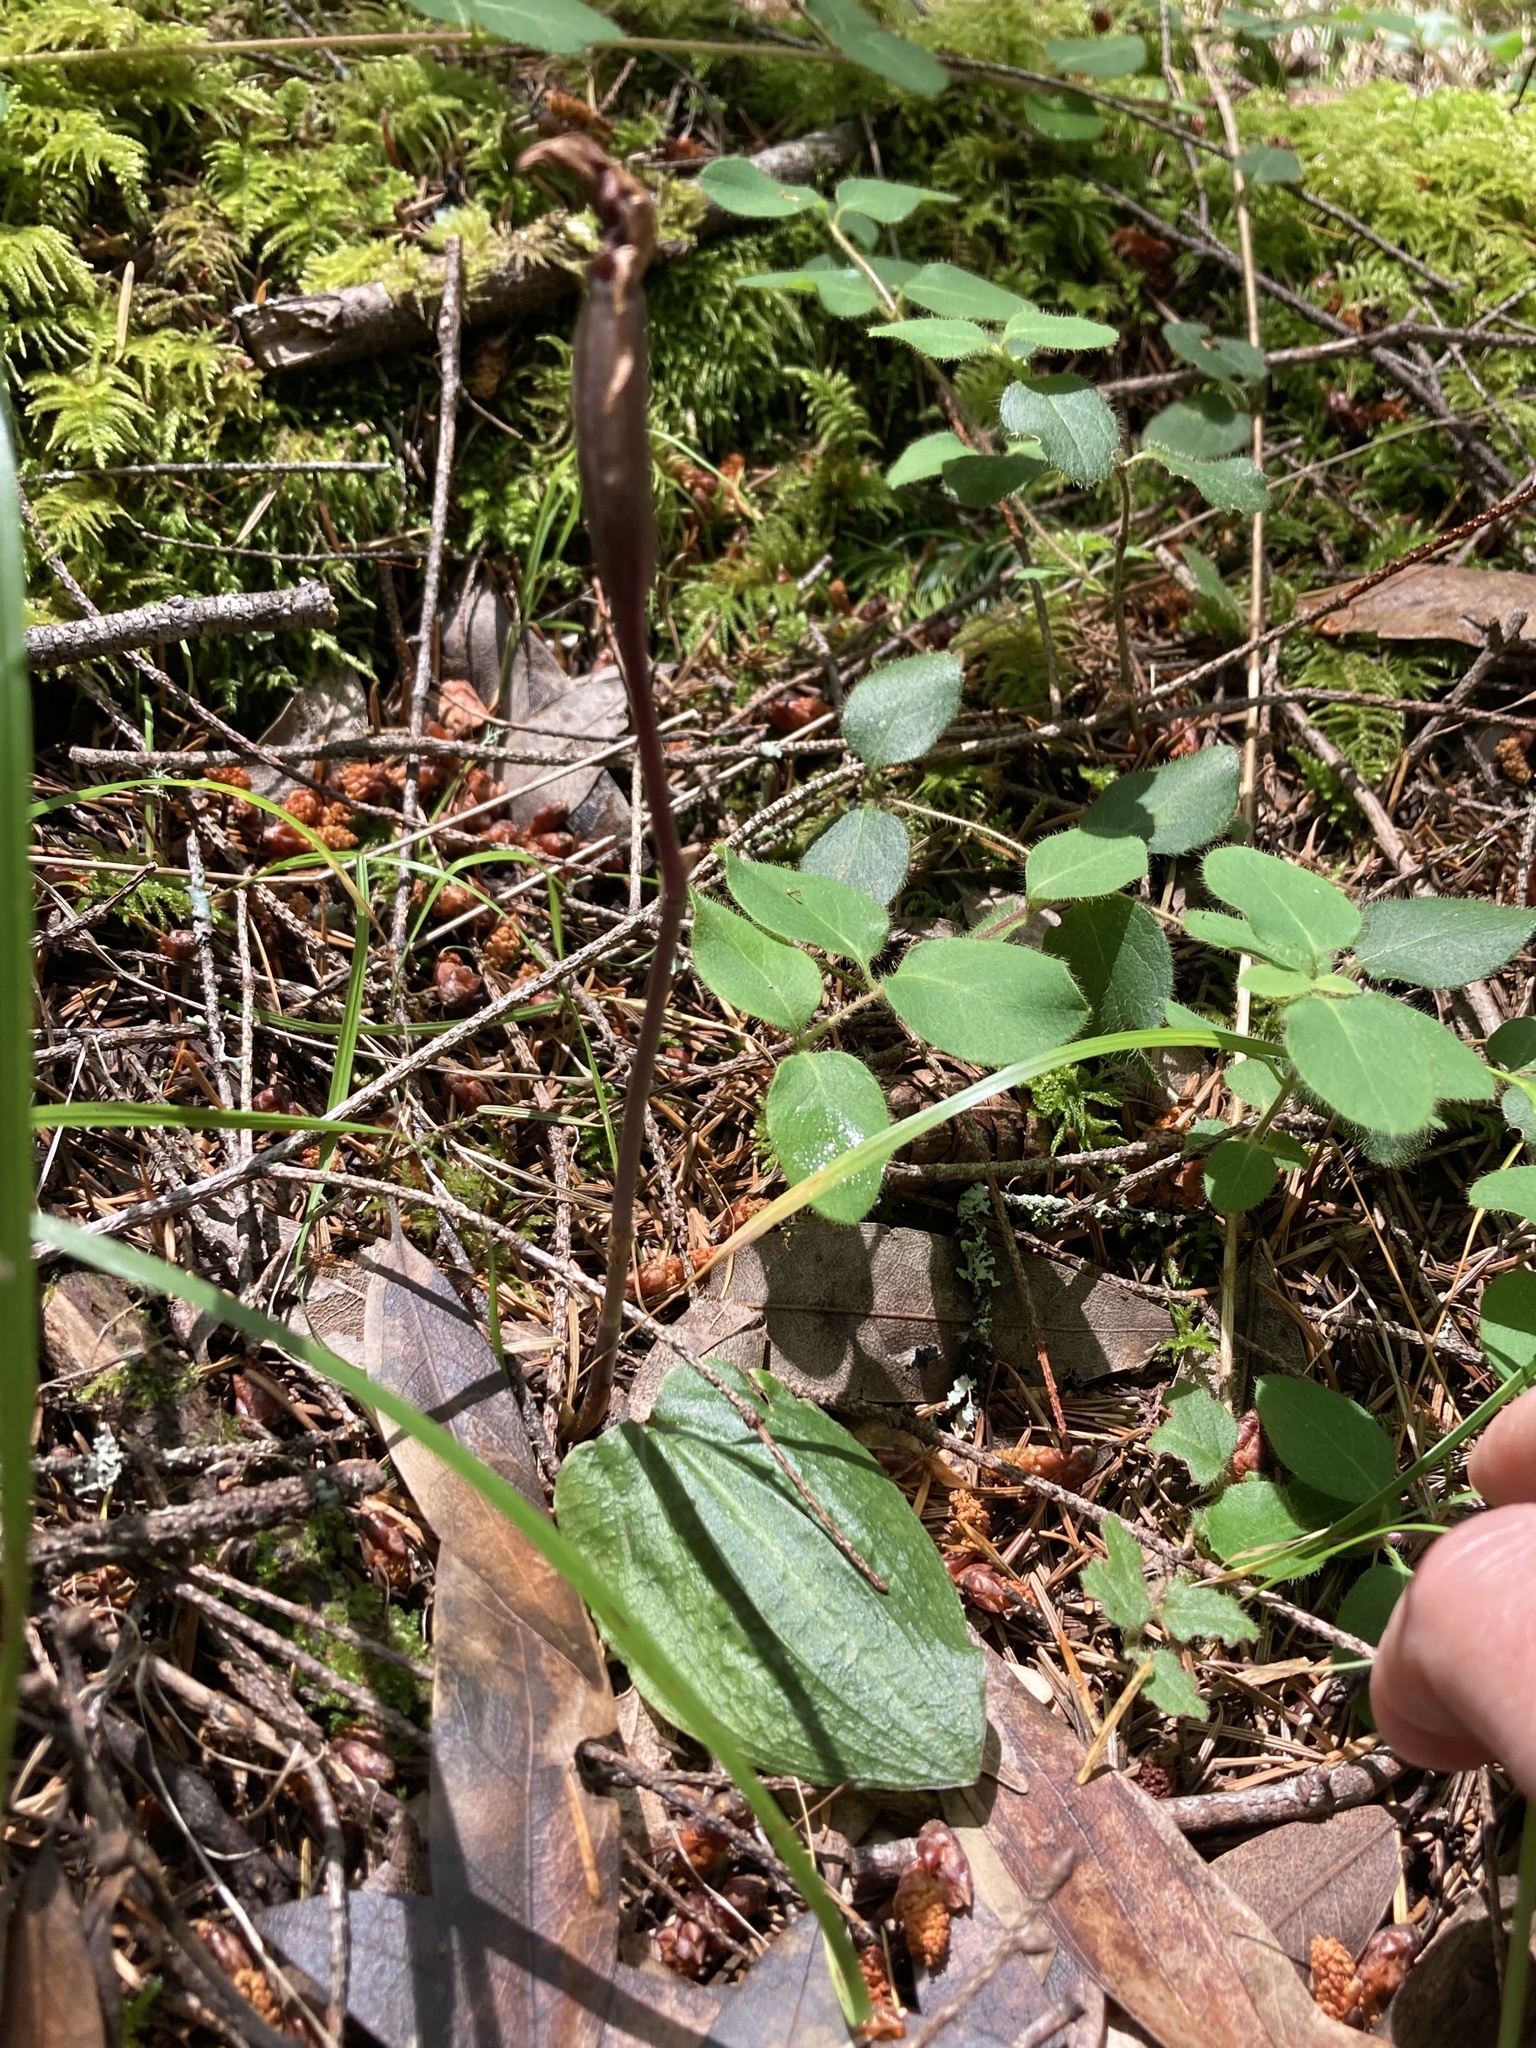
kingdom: Plantae
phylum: Tracheophyta
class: Liliopsida
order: Asparagales
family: Orchidaceae
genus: Calypso
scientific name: Calypso bulbosa
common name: Calypso
